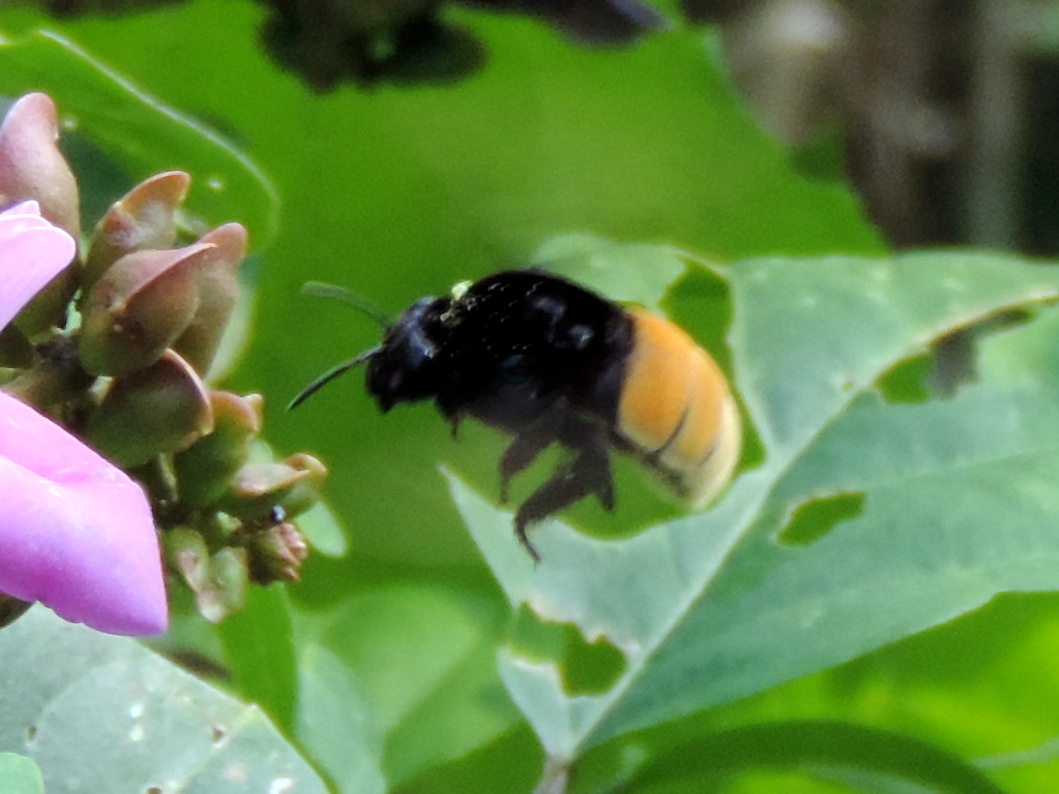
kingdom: Animalia
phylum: Arthropoda
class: Insecta
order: Hymenoptera
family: Apidae
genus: Eulaema
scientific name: Eulaema polychroma
